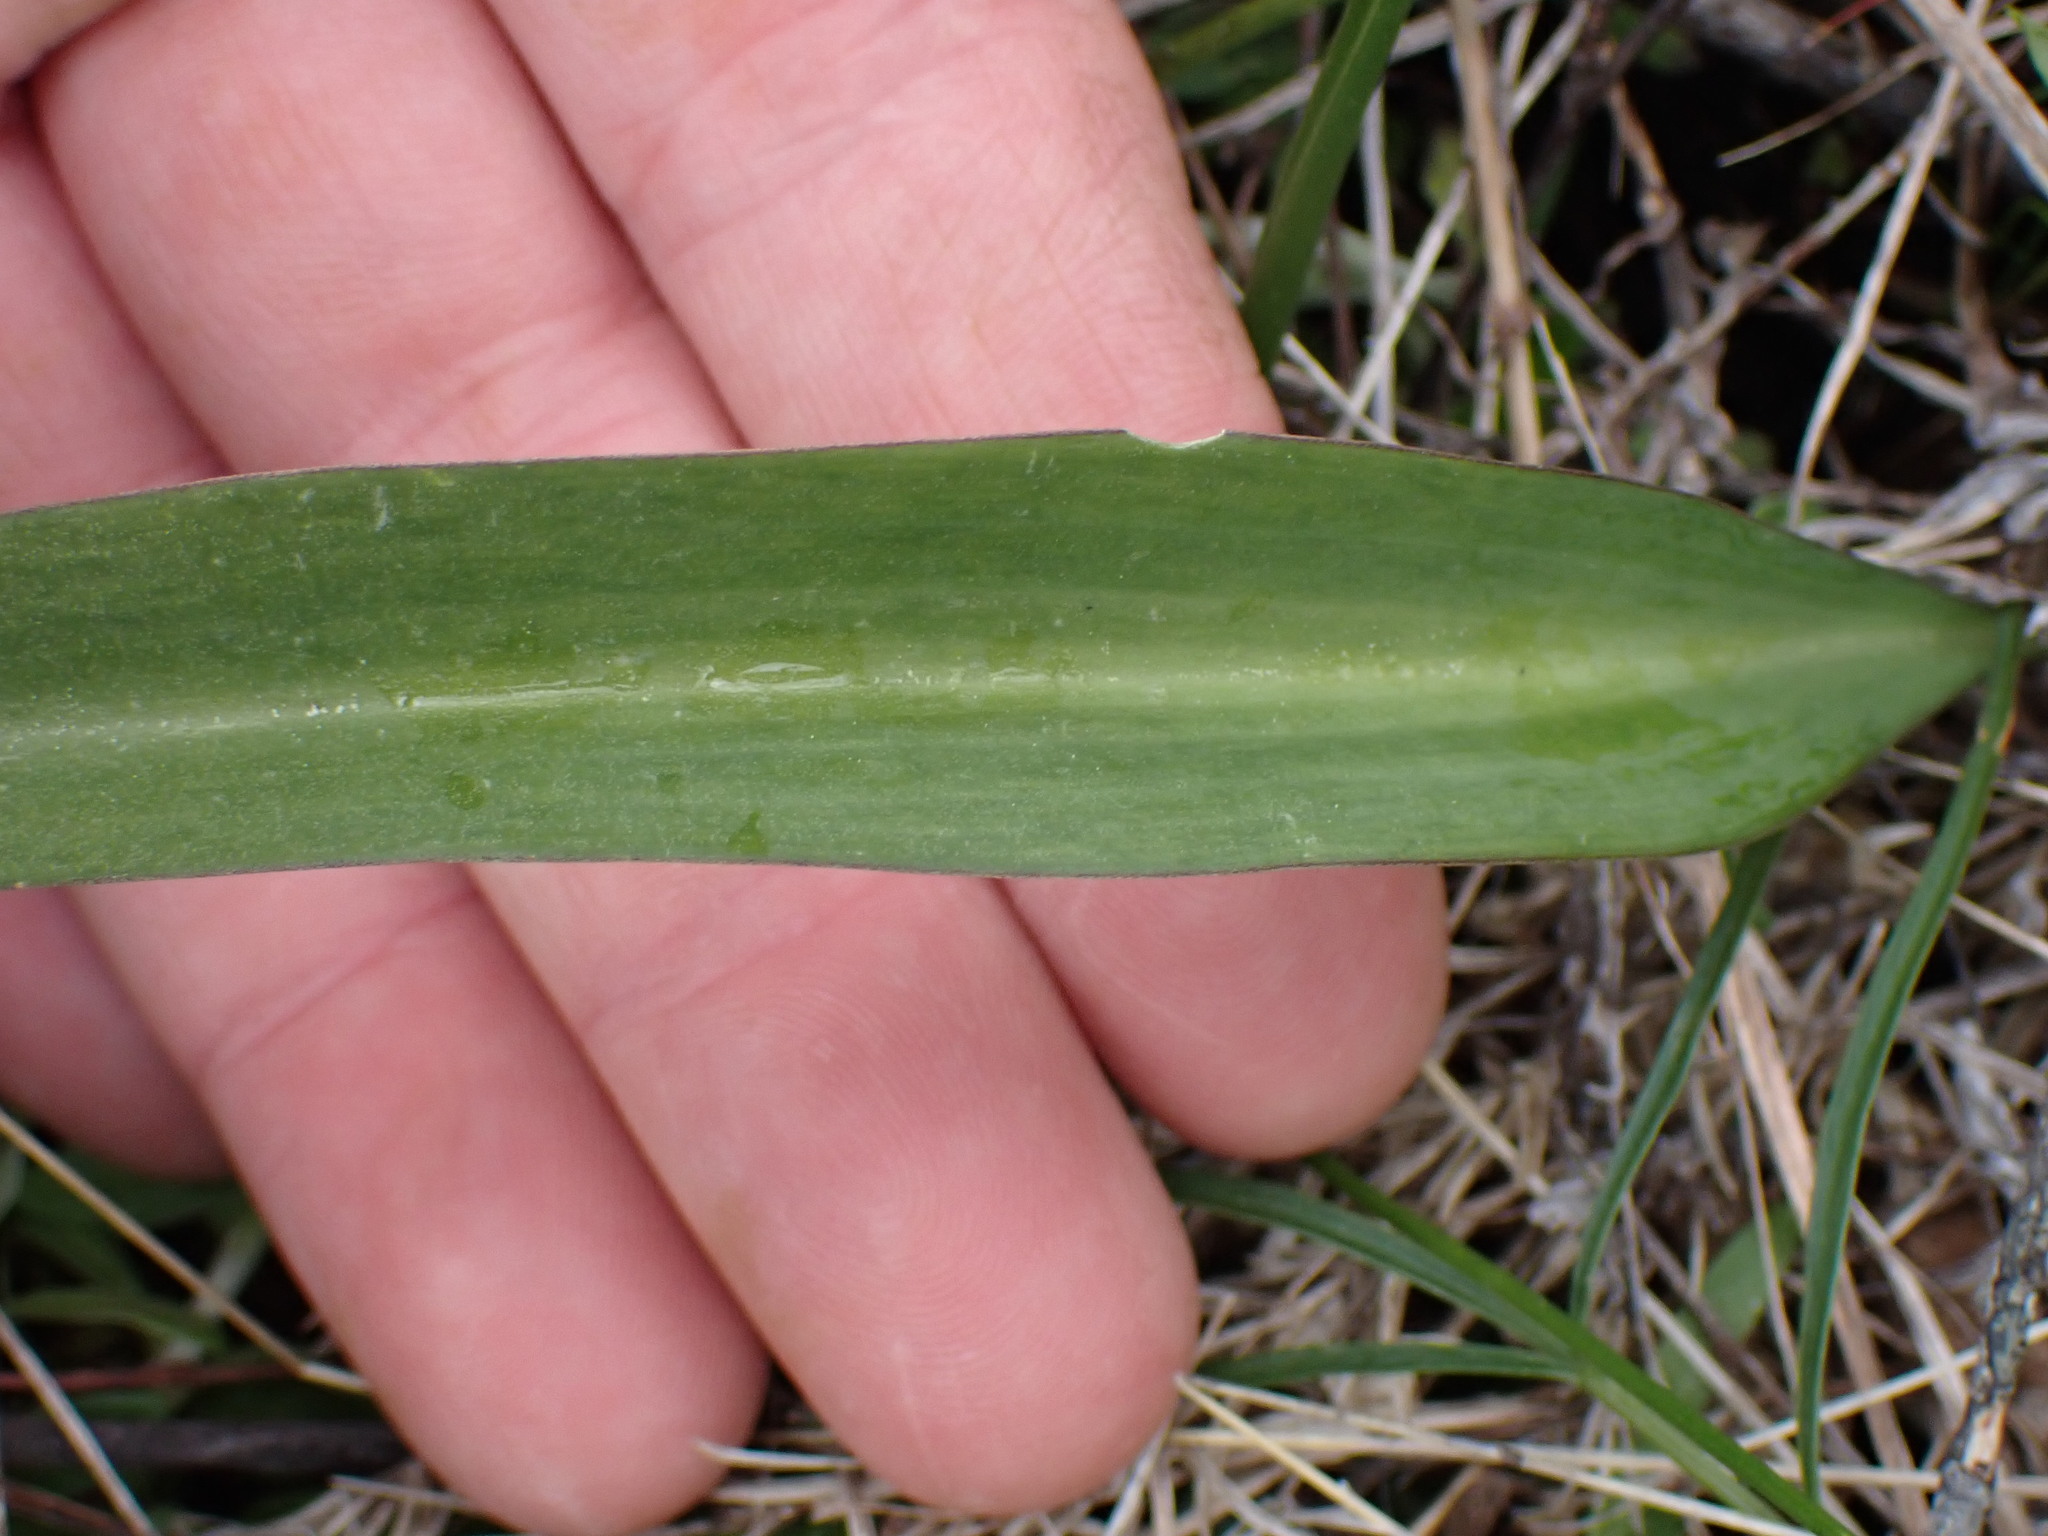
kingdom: Plantae
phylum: Tracheophyta
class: Liliopsida
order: Liliales
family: Liliaceae
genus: Fritillaria
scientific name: Fritillaria affinis
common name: Ojai fritillary
